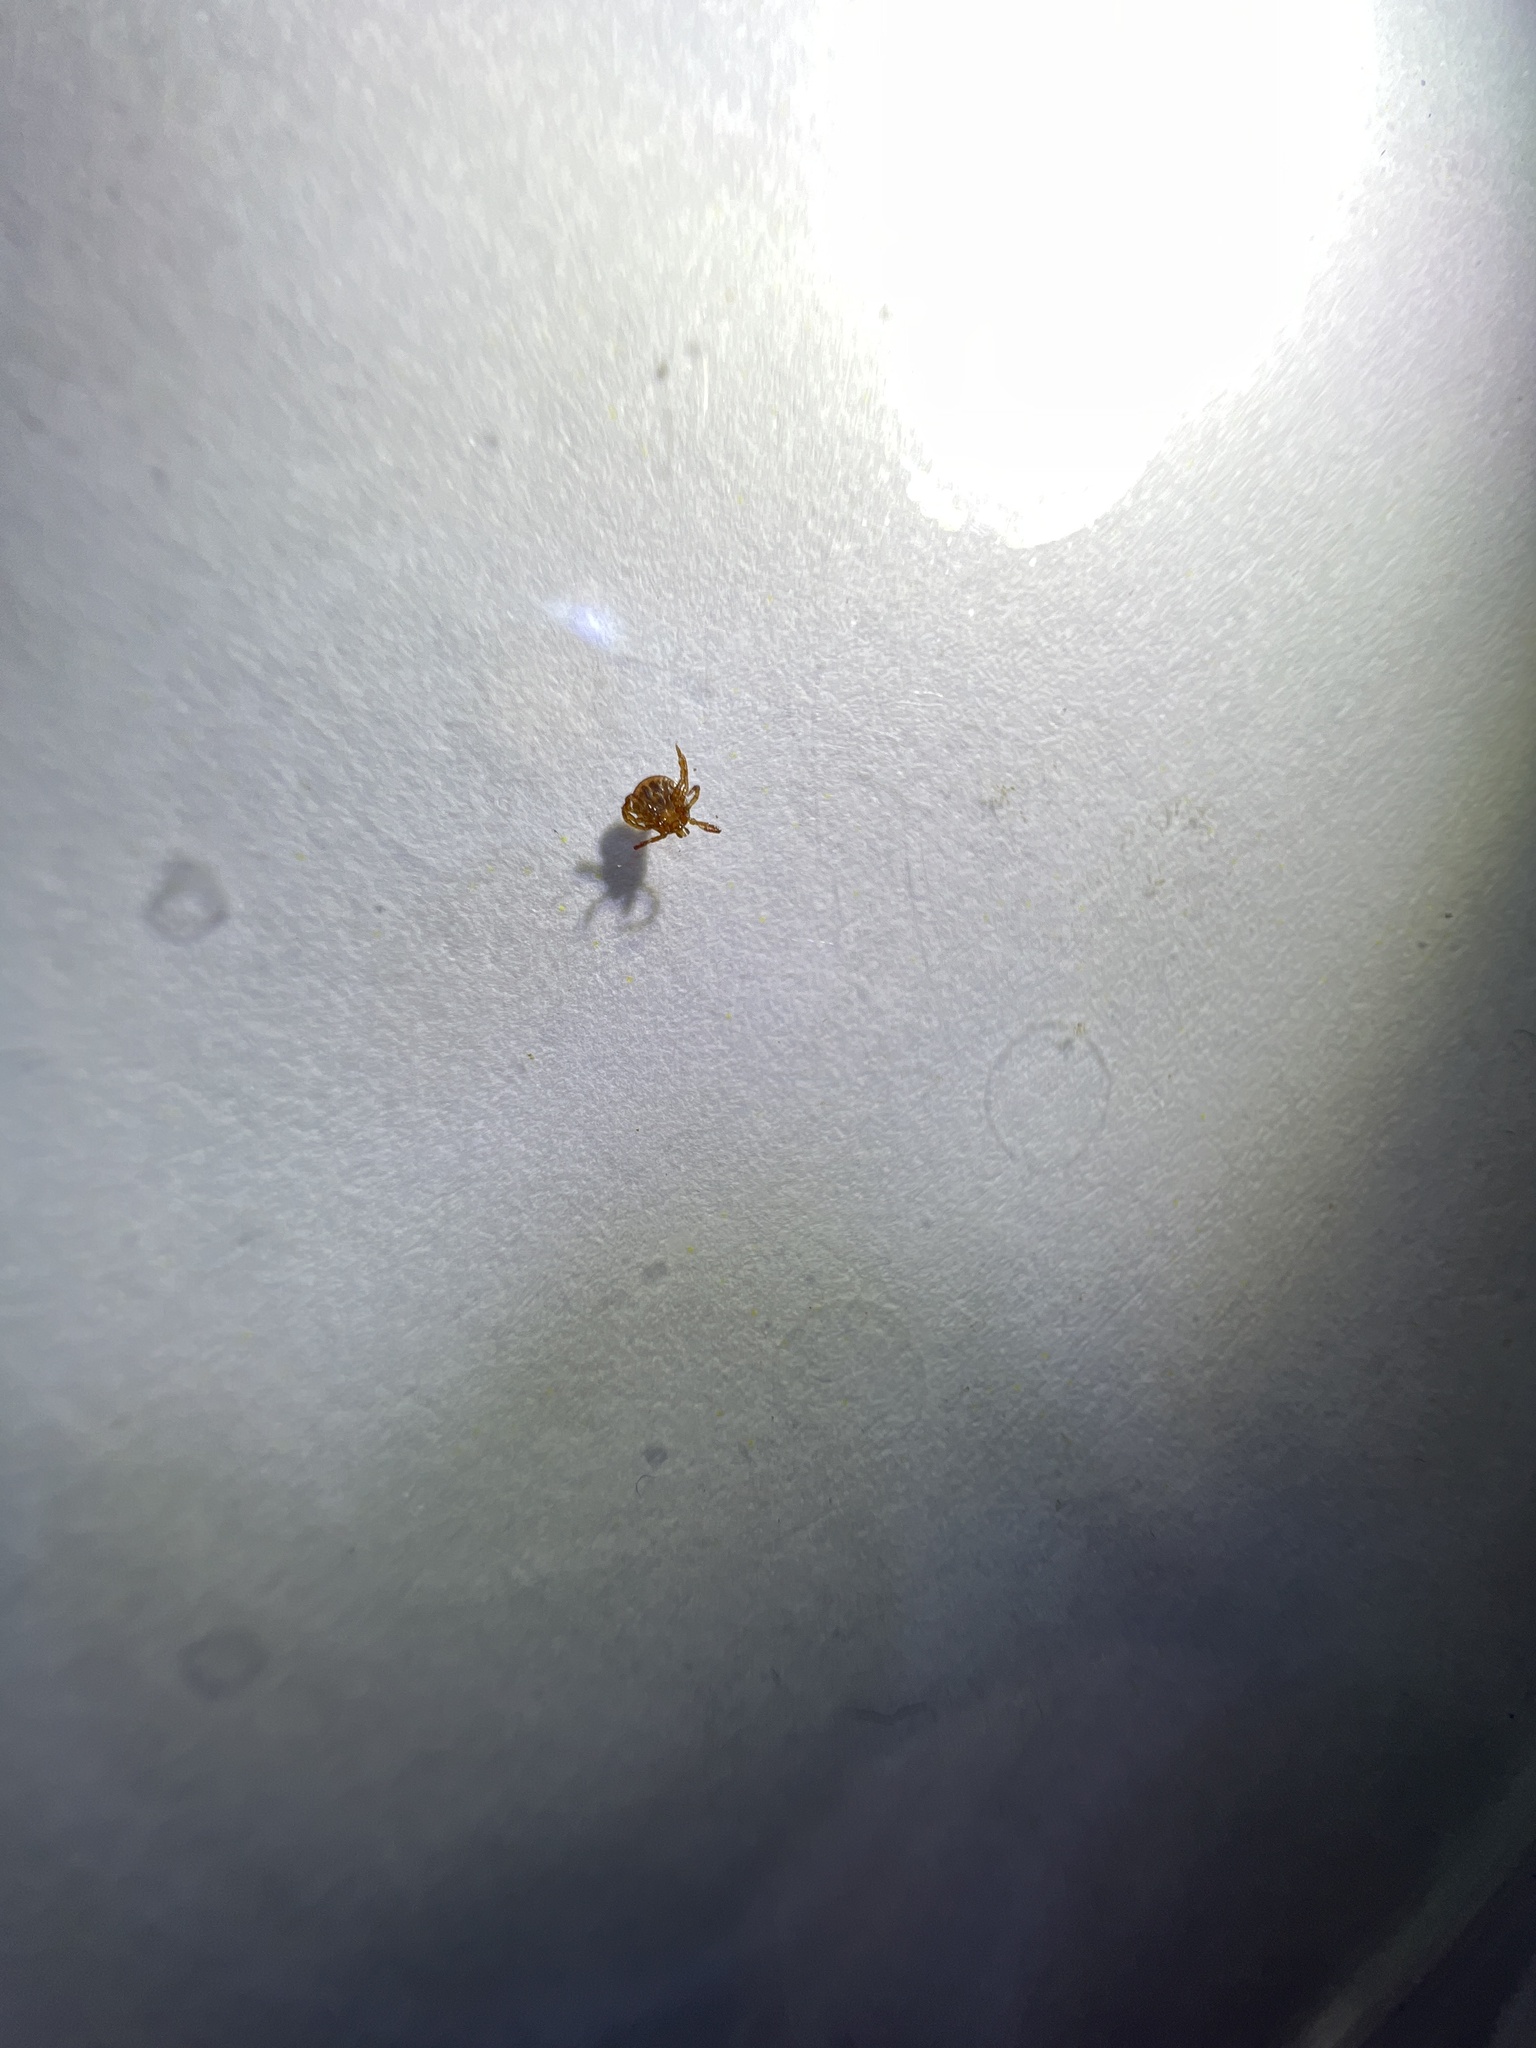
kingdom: Animalia
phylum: Arthropoda
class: Arachnida
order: Ixodida
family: Ixodidae
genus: Amblyomma
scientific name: Amblyomma americanum
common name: Lone star tick
